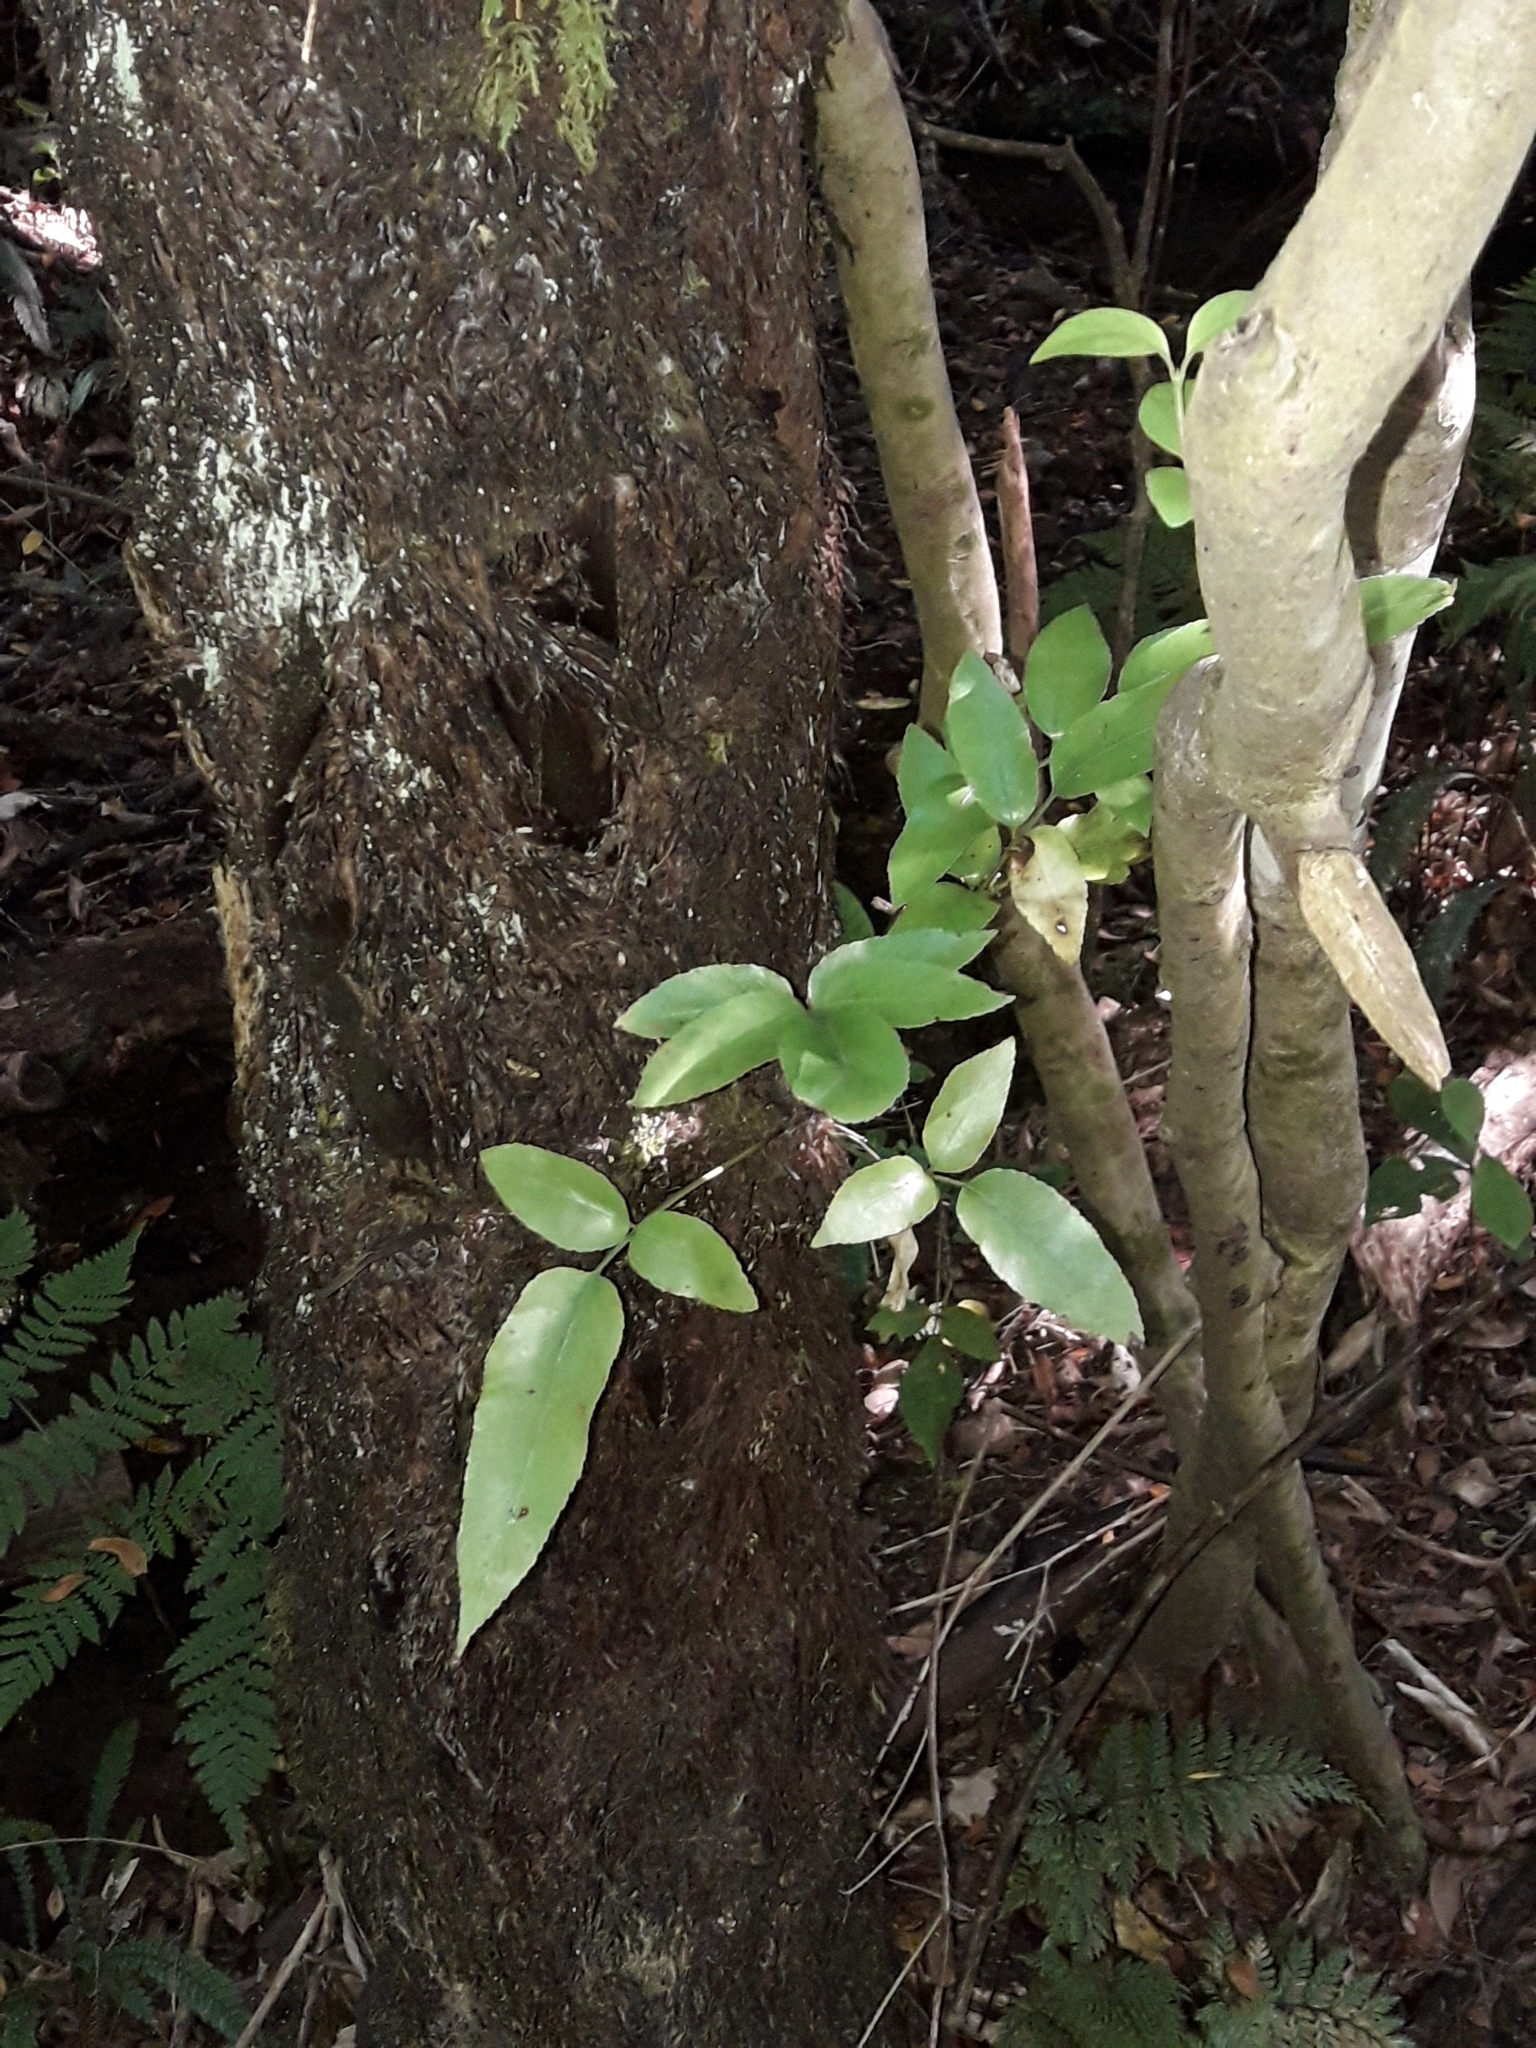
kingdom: Plantae
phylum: Tracheophyta
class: Polypodiopsida
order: Polypodiales
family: Aspleniaceae
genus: Asplenium
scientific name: Asplenium oblongifolium
